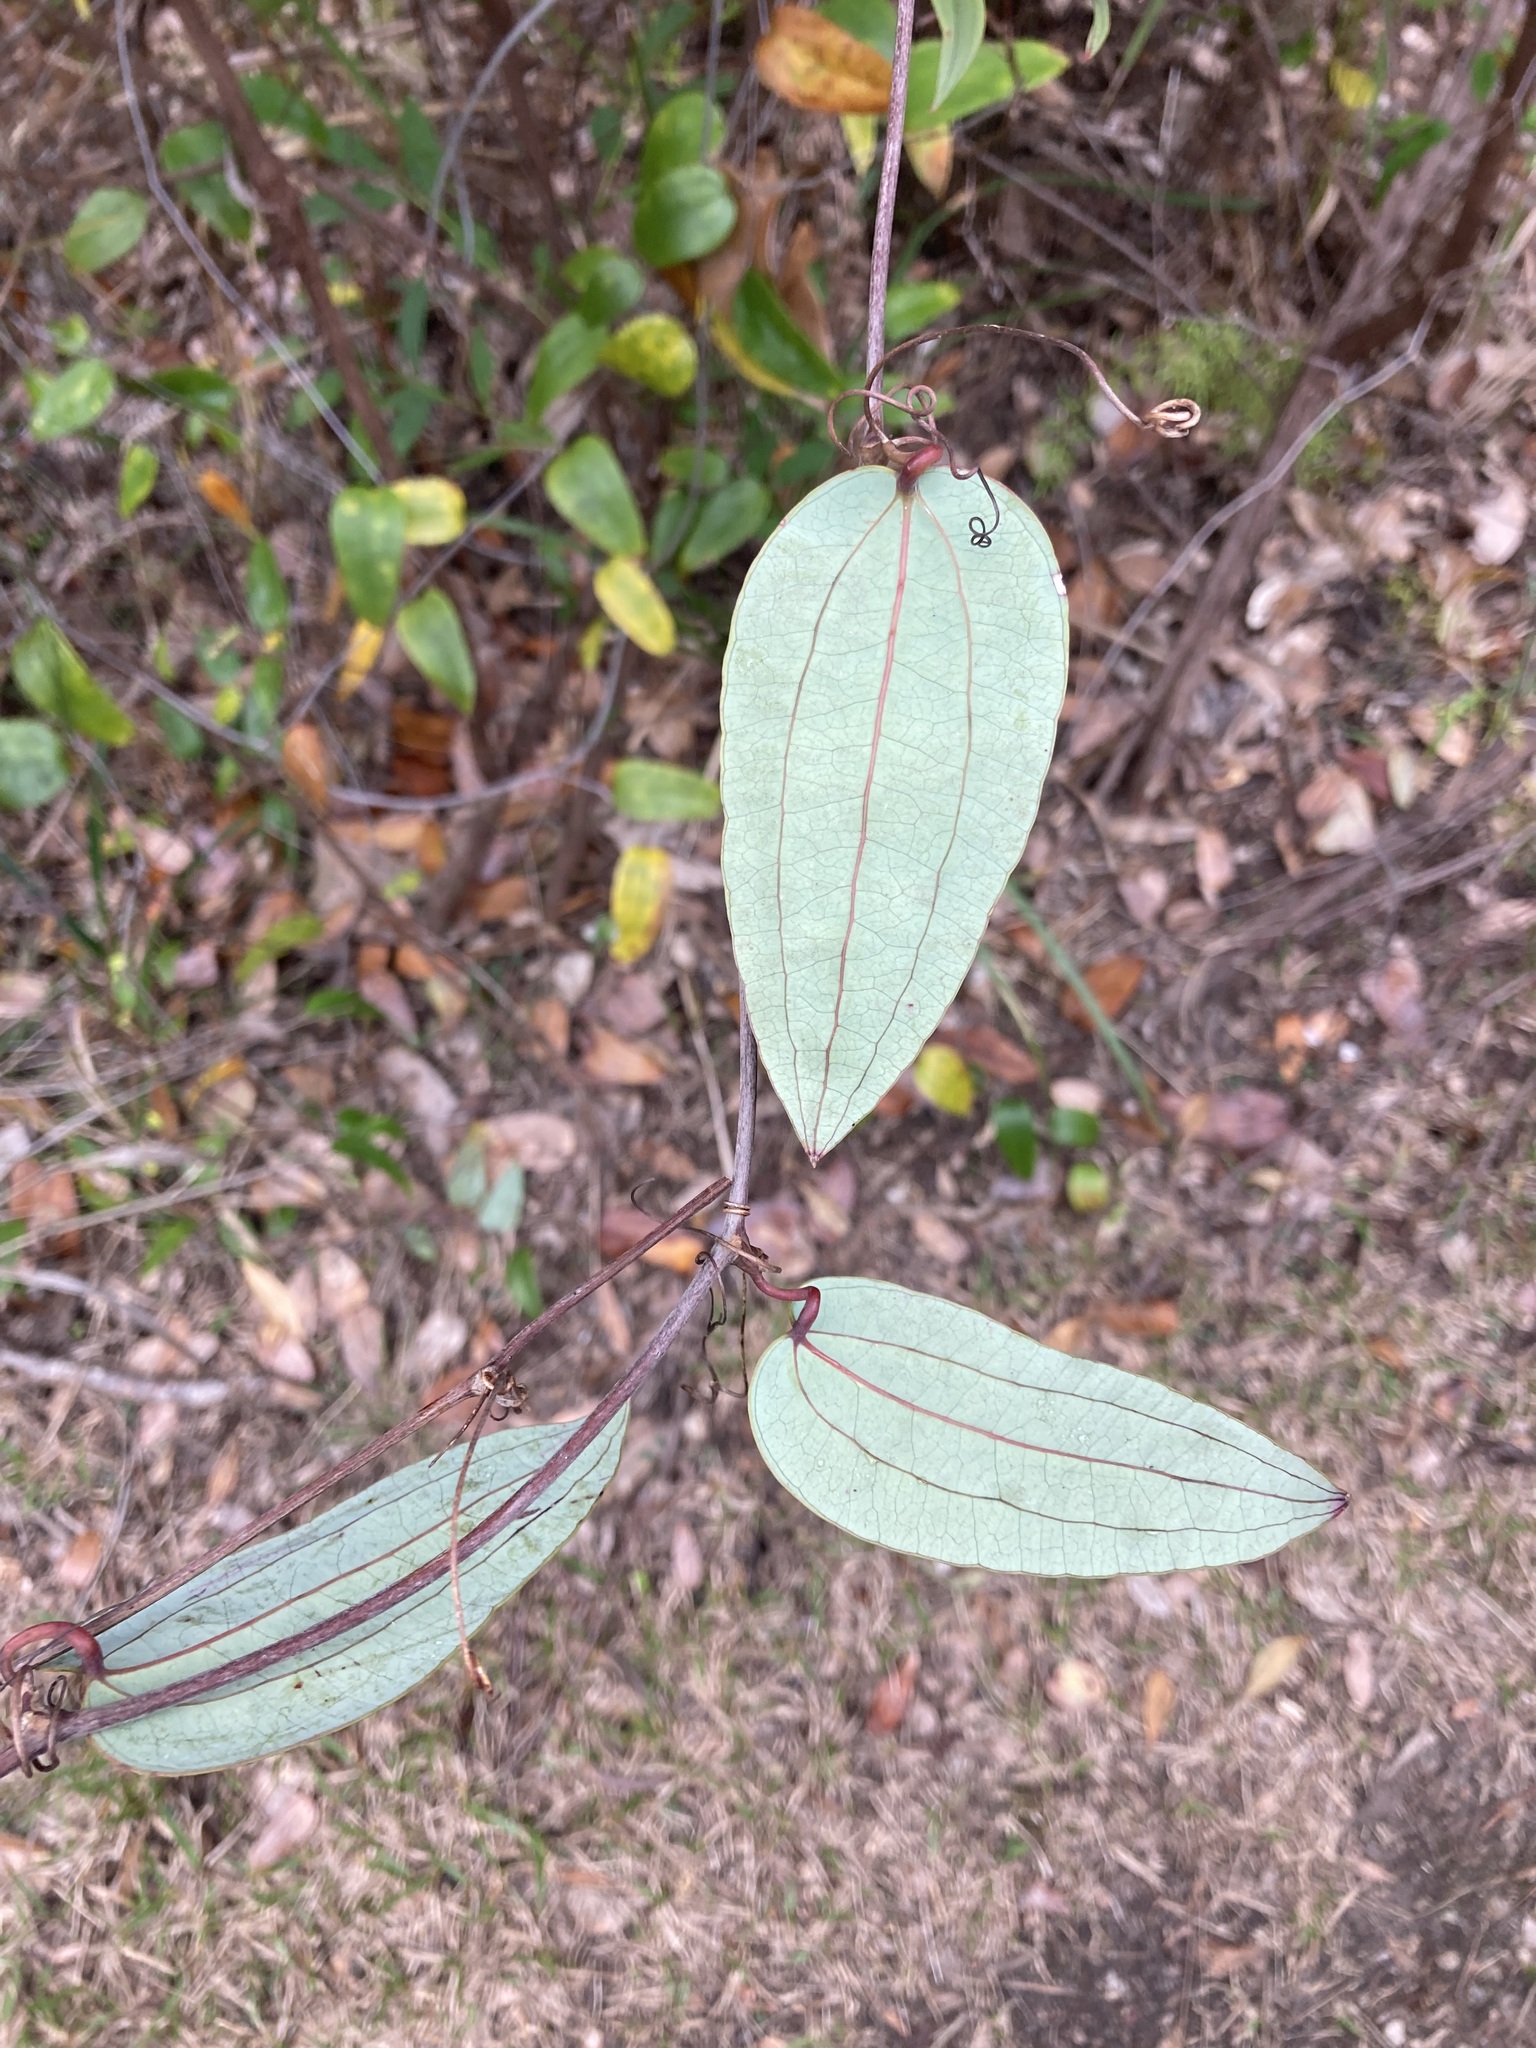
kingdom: Plantae
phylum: Tracheophyta
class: Liliopsida
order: Liliales
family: Smilacaceae
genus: Smilax
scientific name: Smilax glyciphylla
